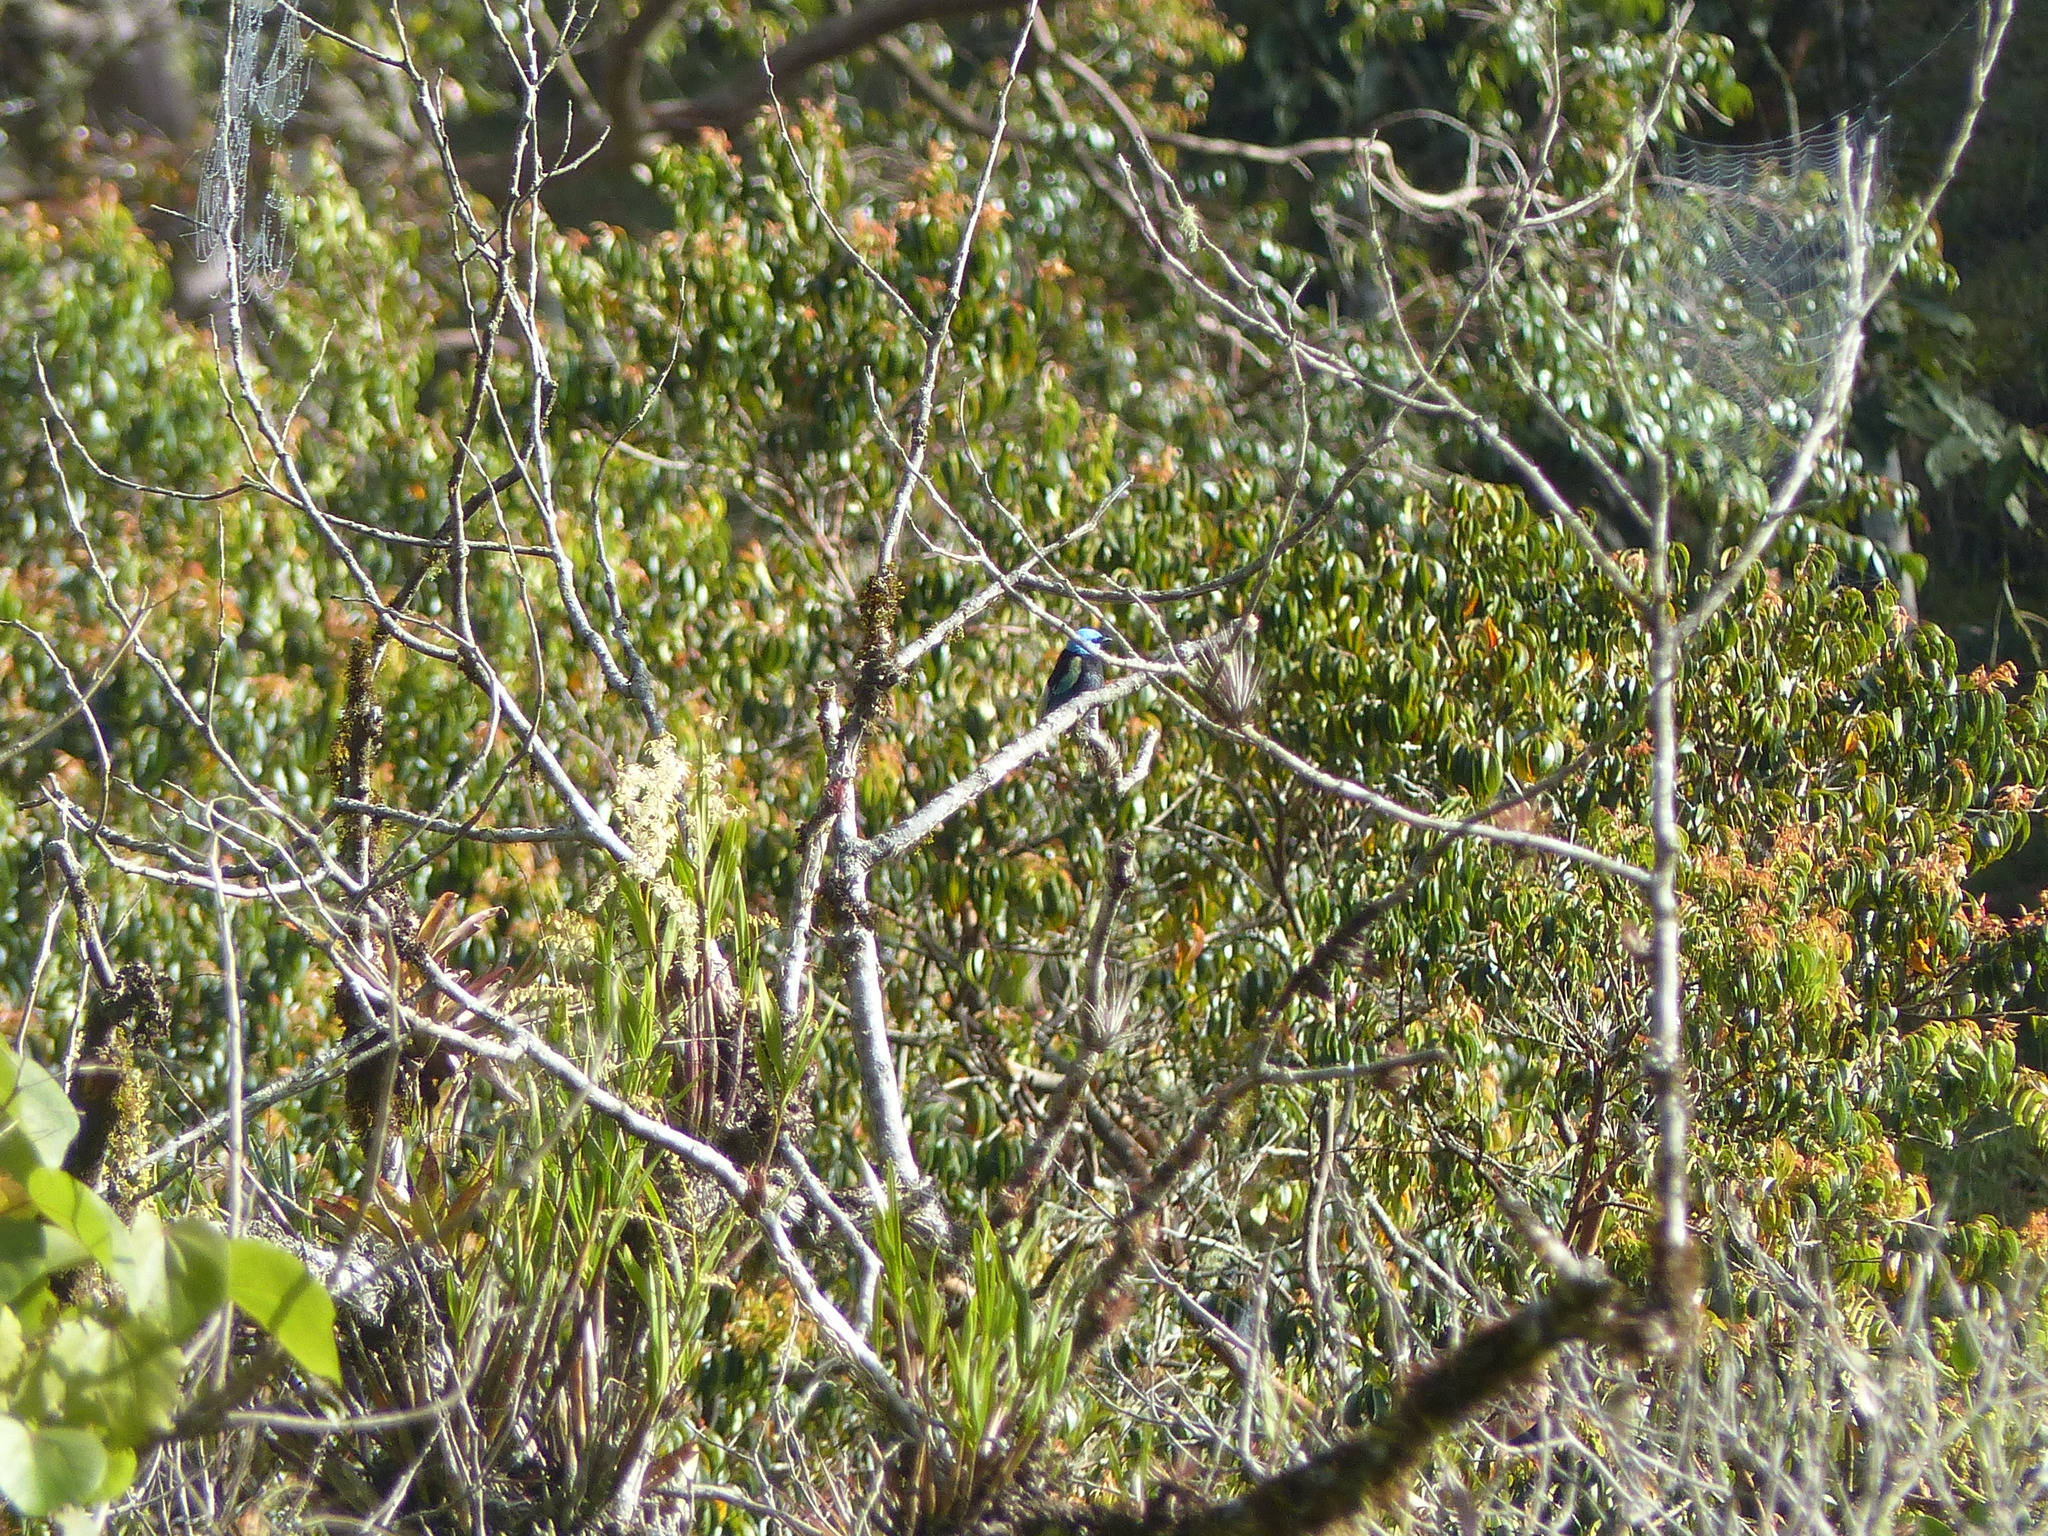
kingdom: Animalia
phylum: Chordata
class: Aves
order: Passeriformes
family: Thraupidae
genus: Stilpnia
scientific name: Stilpnia cyanicollis
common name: Blue-necked tanager
